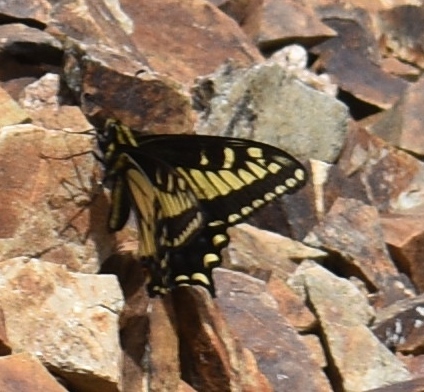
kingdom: Animalia
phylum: Arthropoda
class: Insecta
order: Lepidoptera
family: Papilionidae
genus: Papilio
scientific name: Papilio zelicaon
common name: Anise swallowtail
